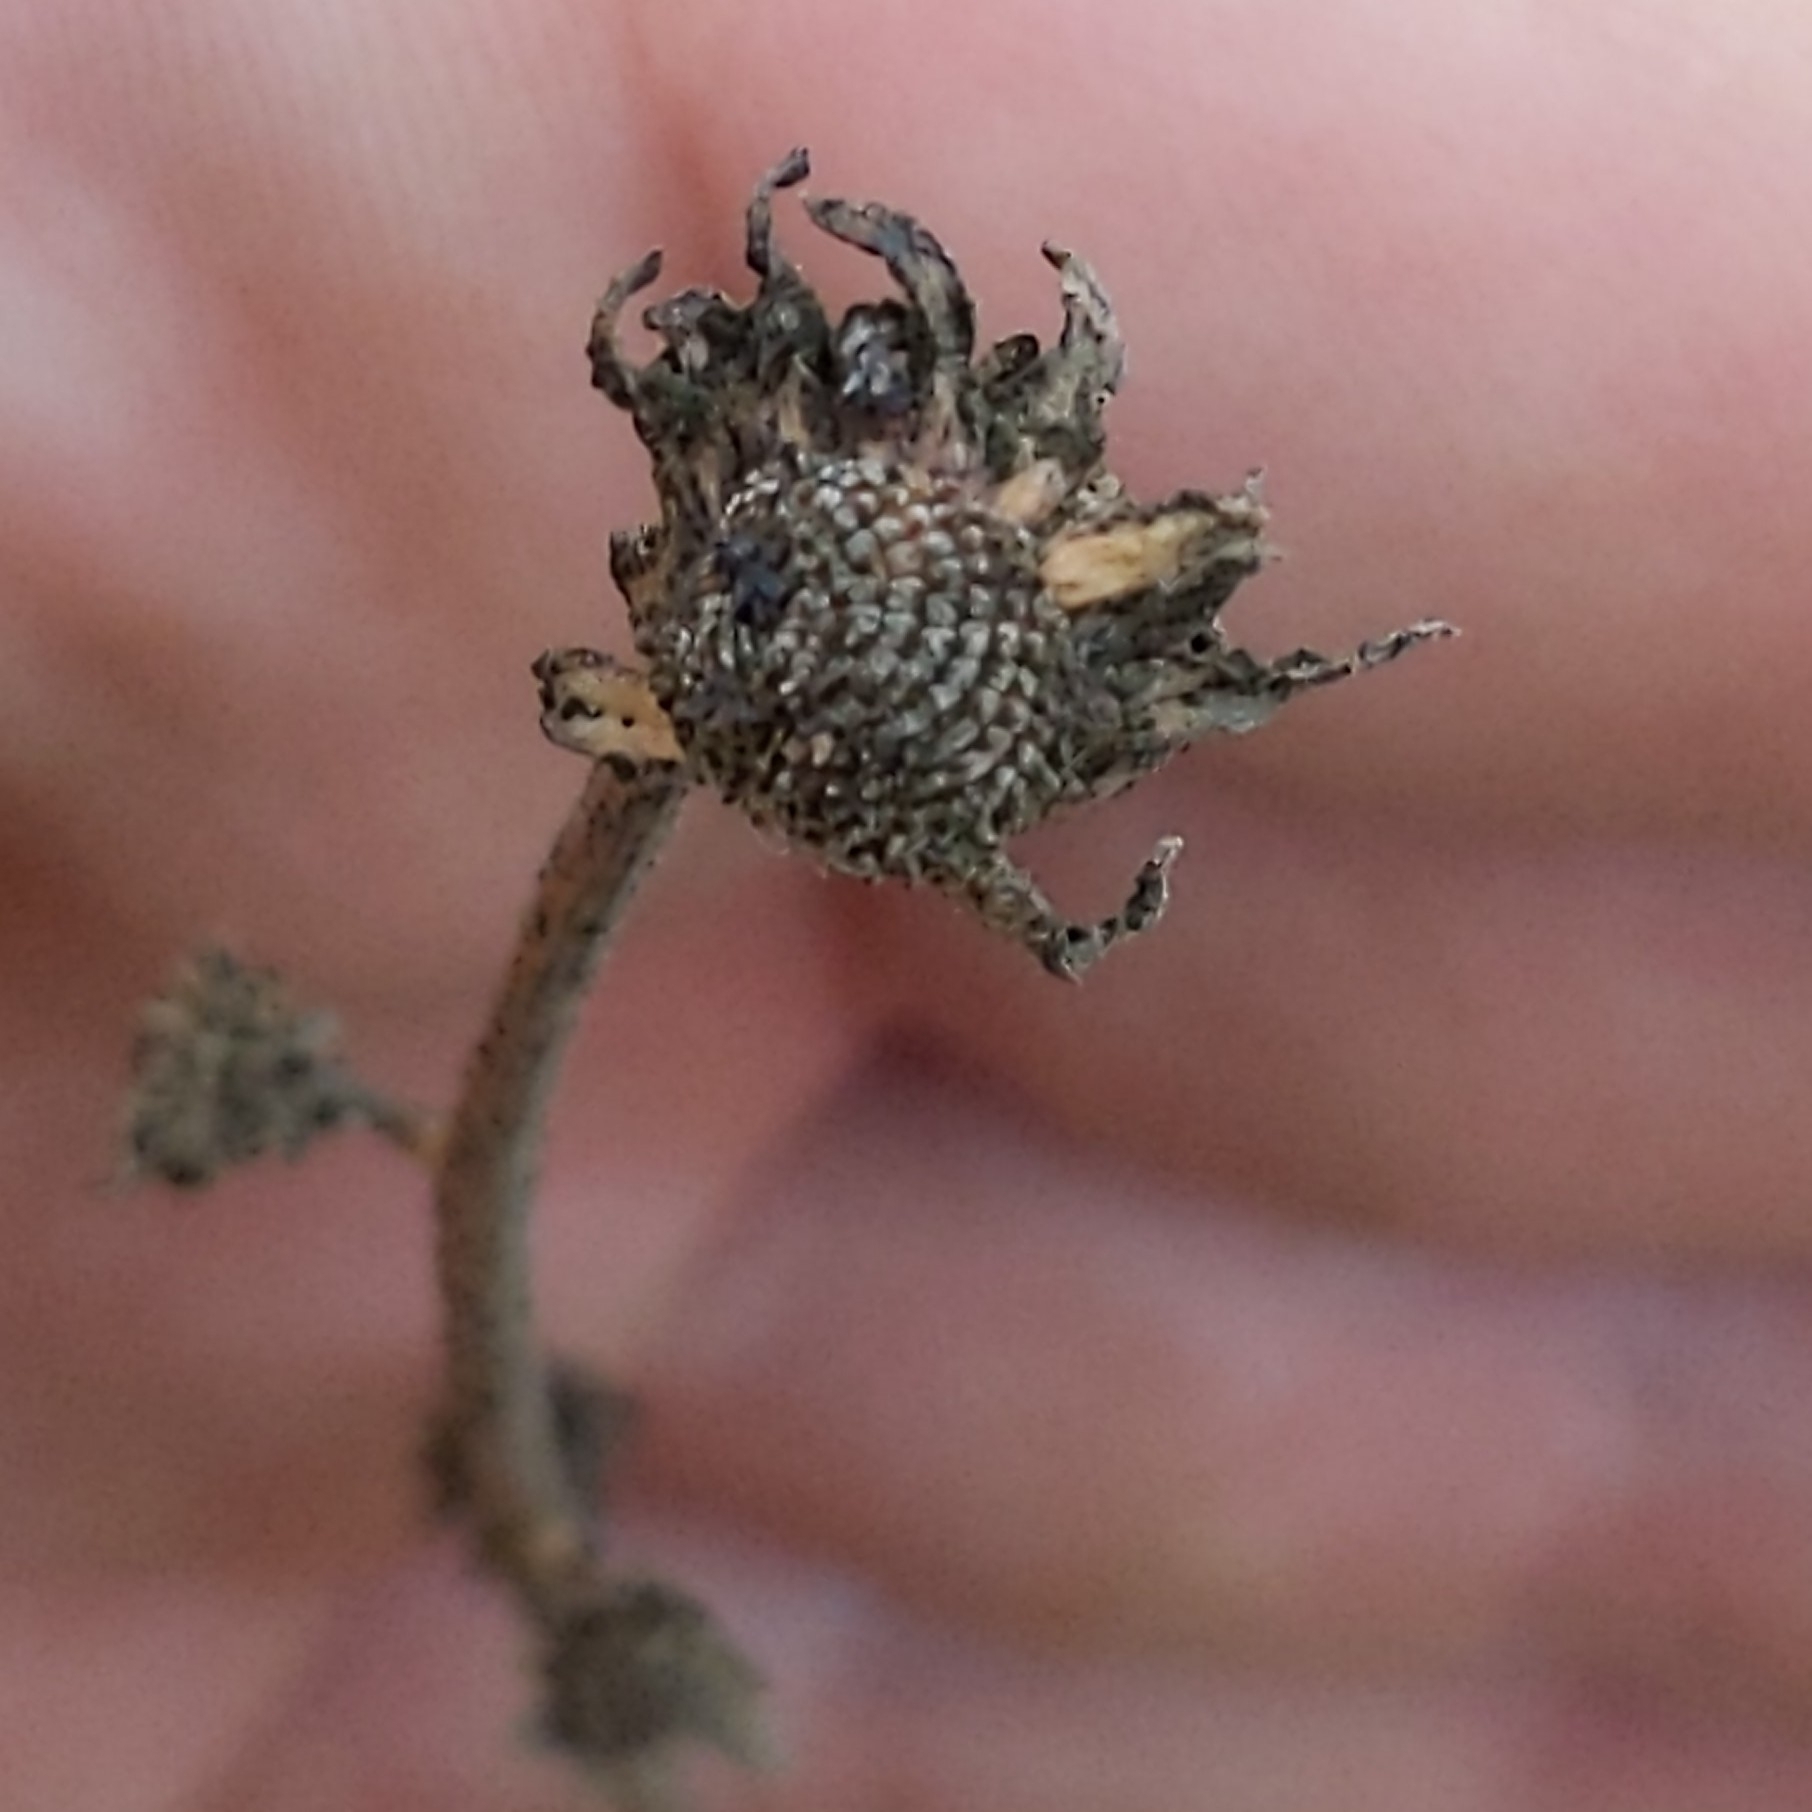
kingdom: Plantae
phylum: Tracheophyta
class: Magnoliopsida
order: Asterales
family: Asteraceae
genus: Encelia
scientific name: Encelia farinosa
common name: Brittlebush
